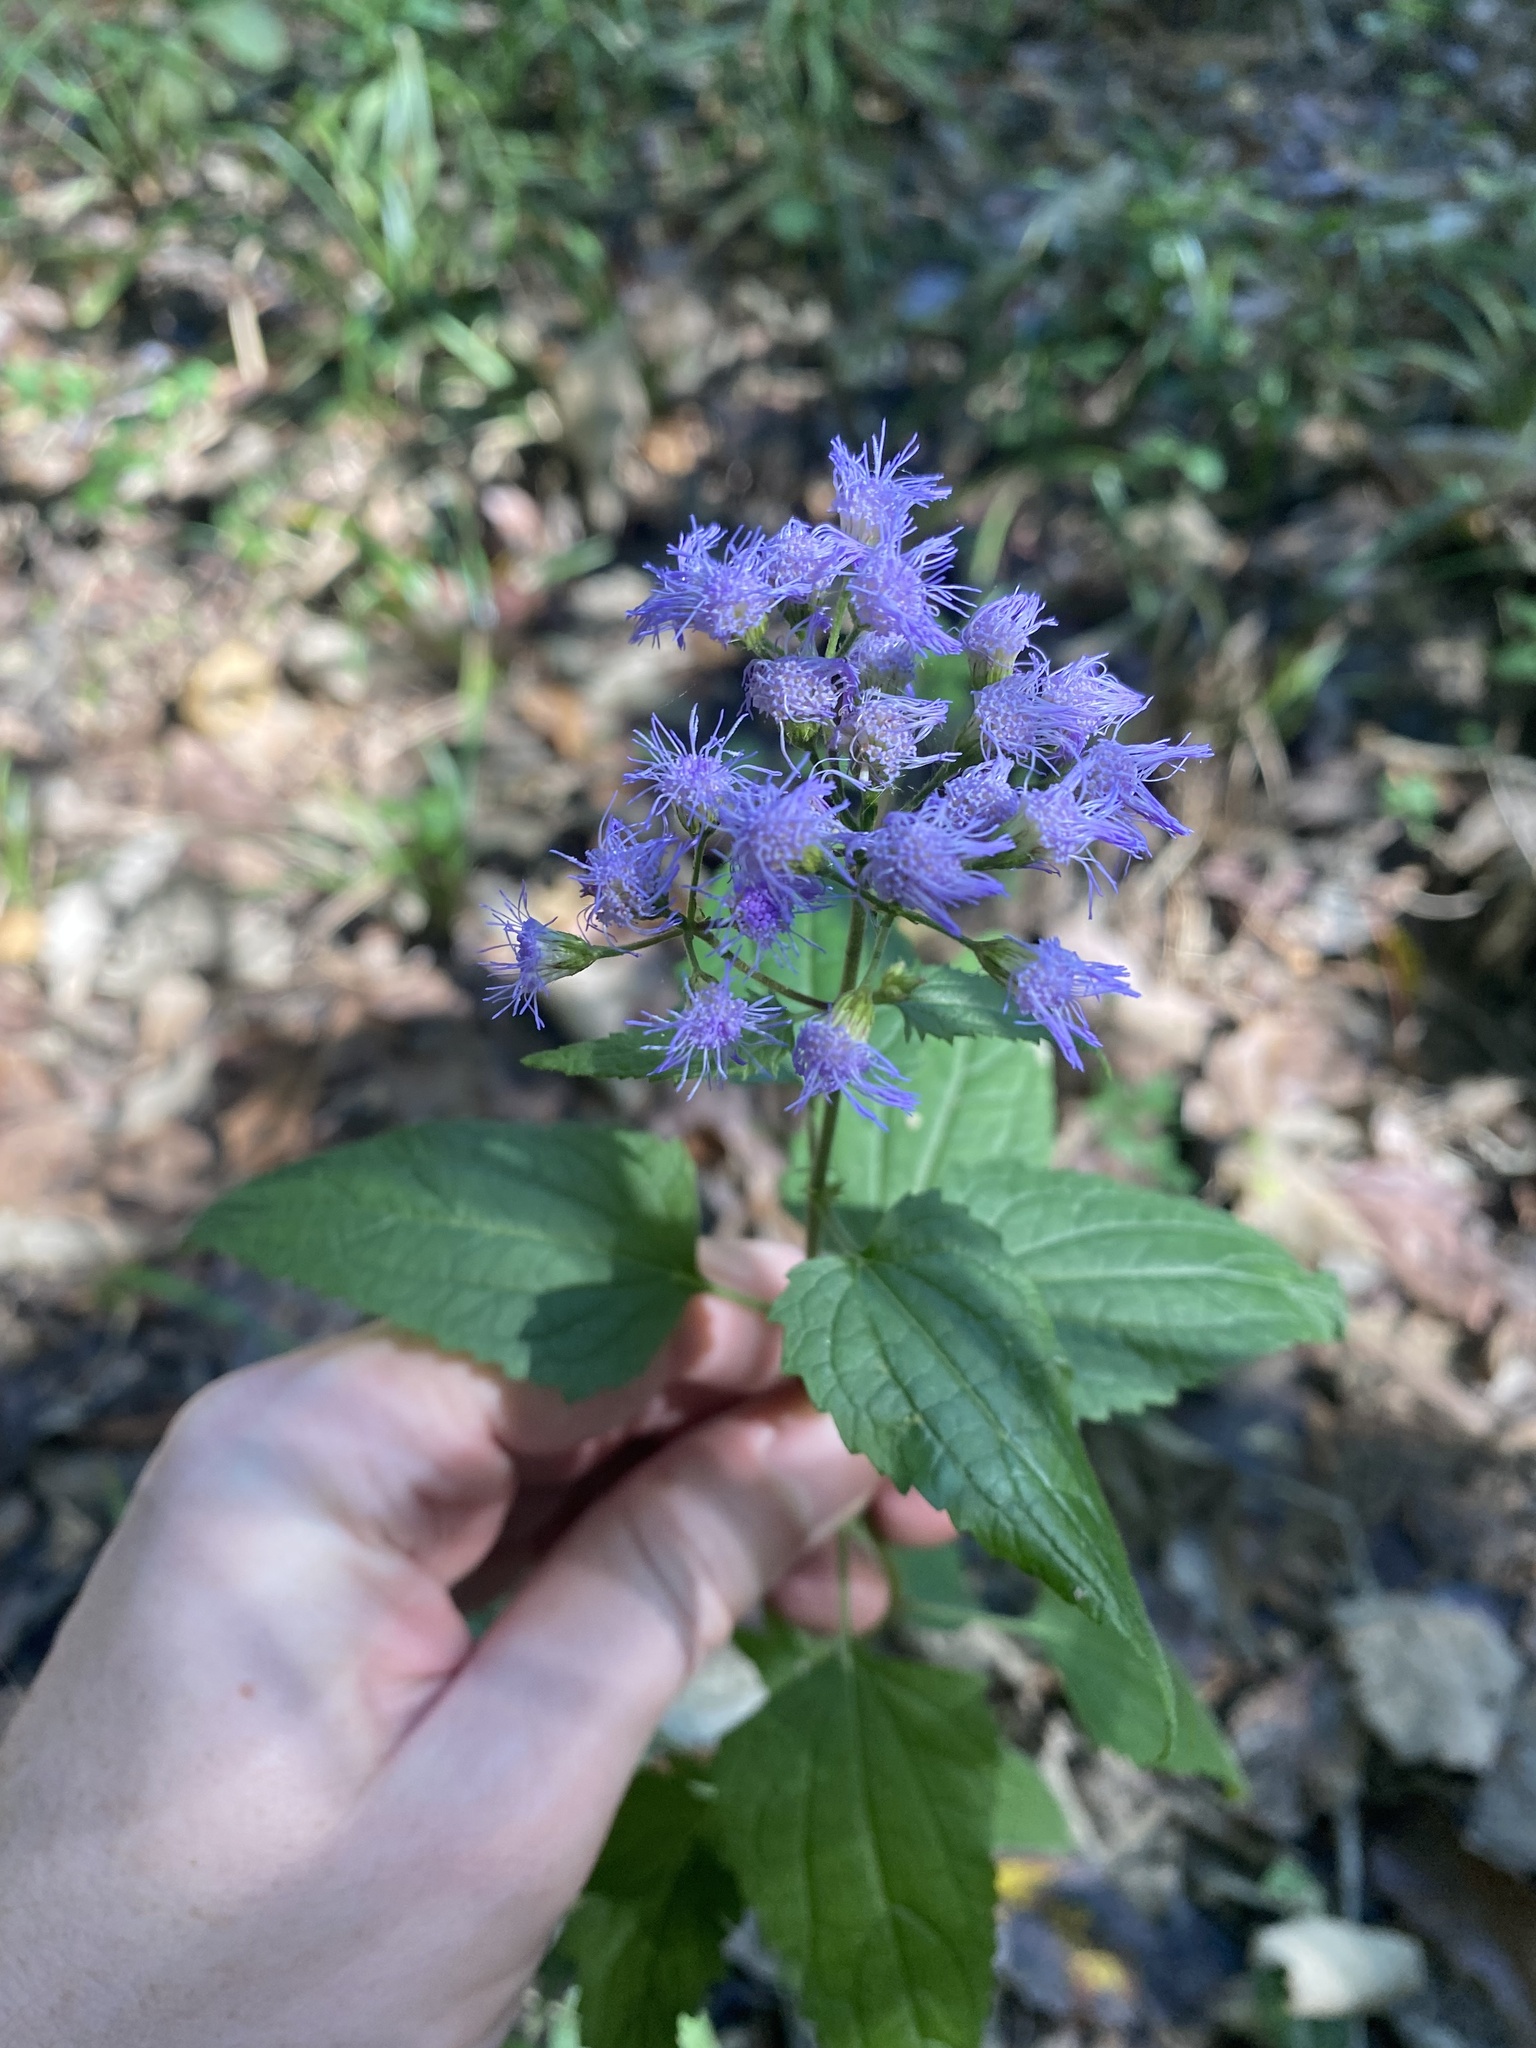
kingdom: Plantae
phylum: Tracheophyta
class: Magnoliopsida
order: Asterales
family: Asteraceae
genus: Conoclinium
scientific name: Conoclinium coelestinum
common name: Blue mistflower
